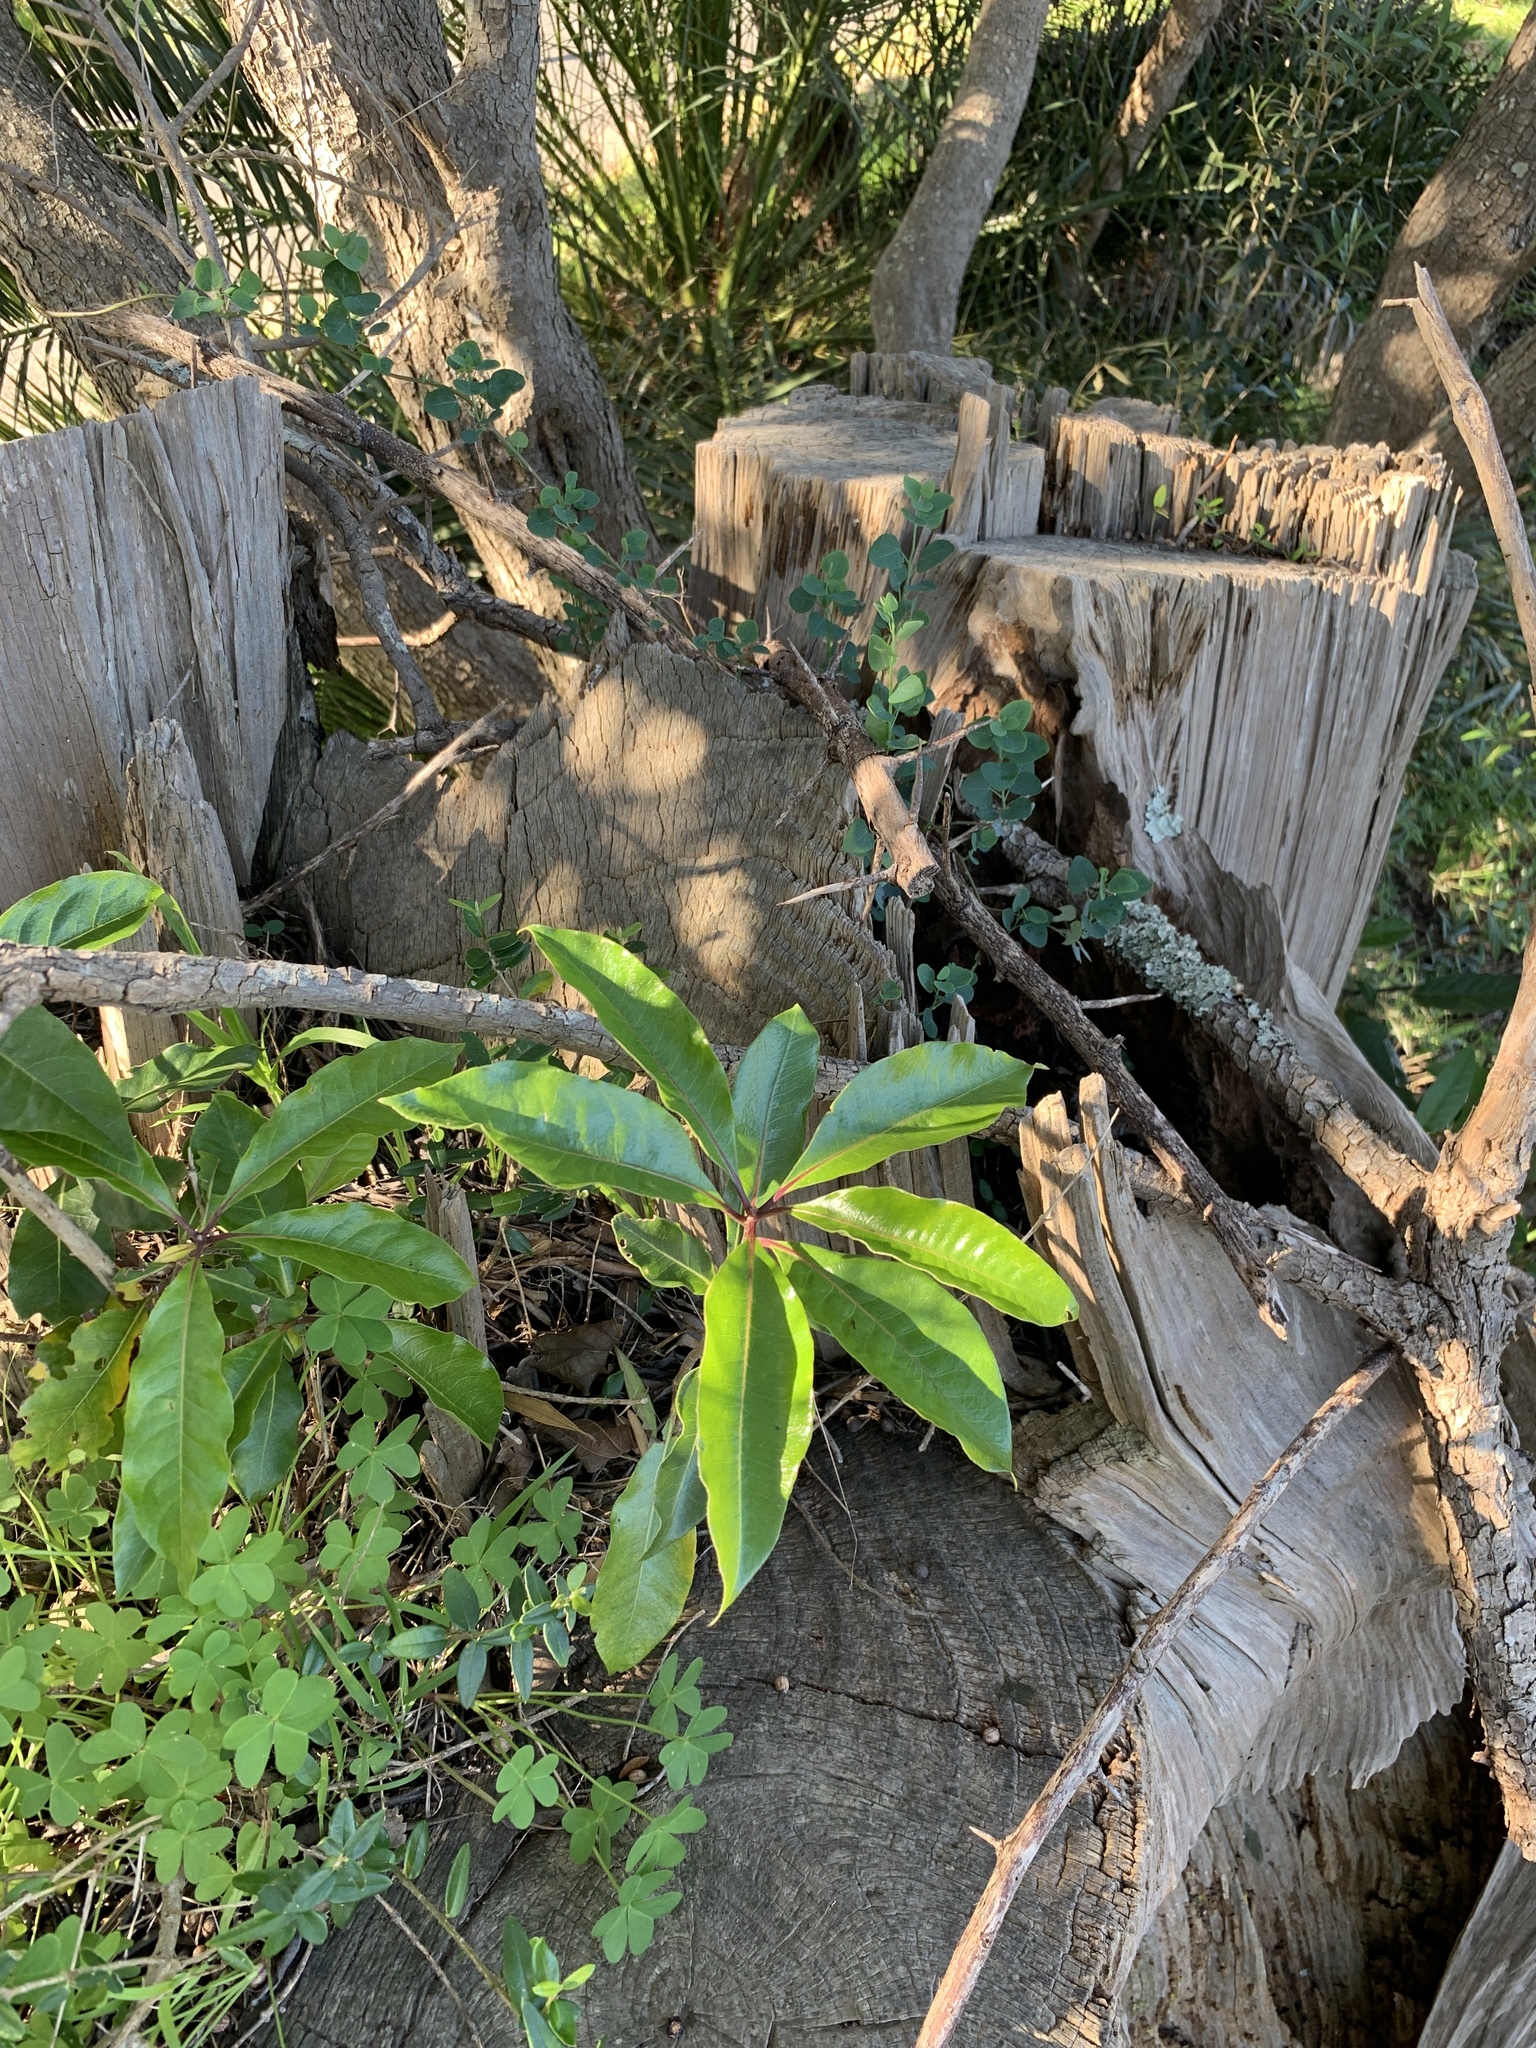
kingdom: Plantae
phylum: Tracheophyta
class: Magnoliopsida
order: Apiales
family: Pittosporaceae
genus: Pittosporum
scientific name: Pittosporum undulatum
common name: Australian cheesewood
